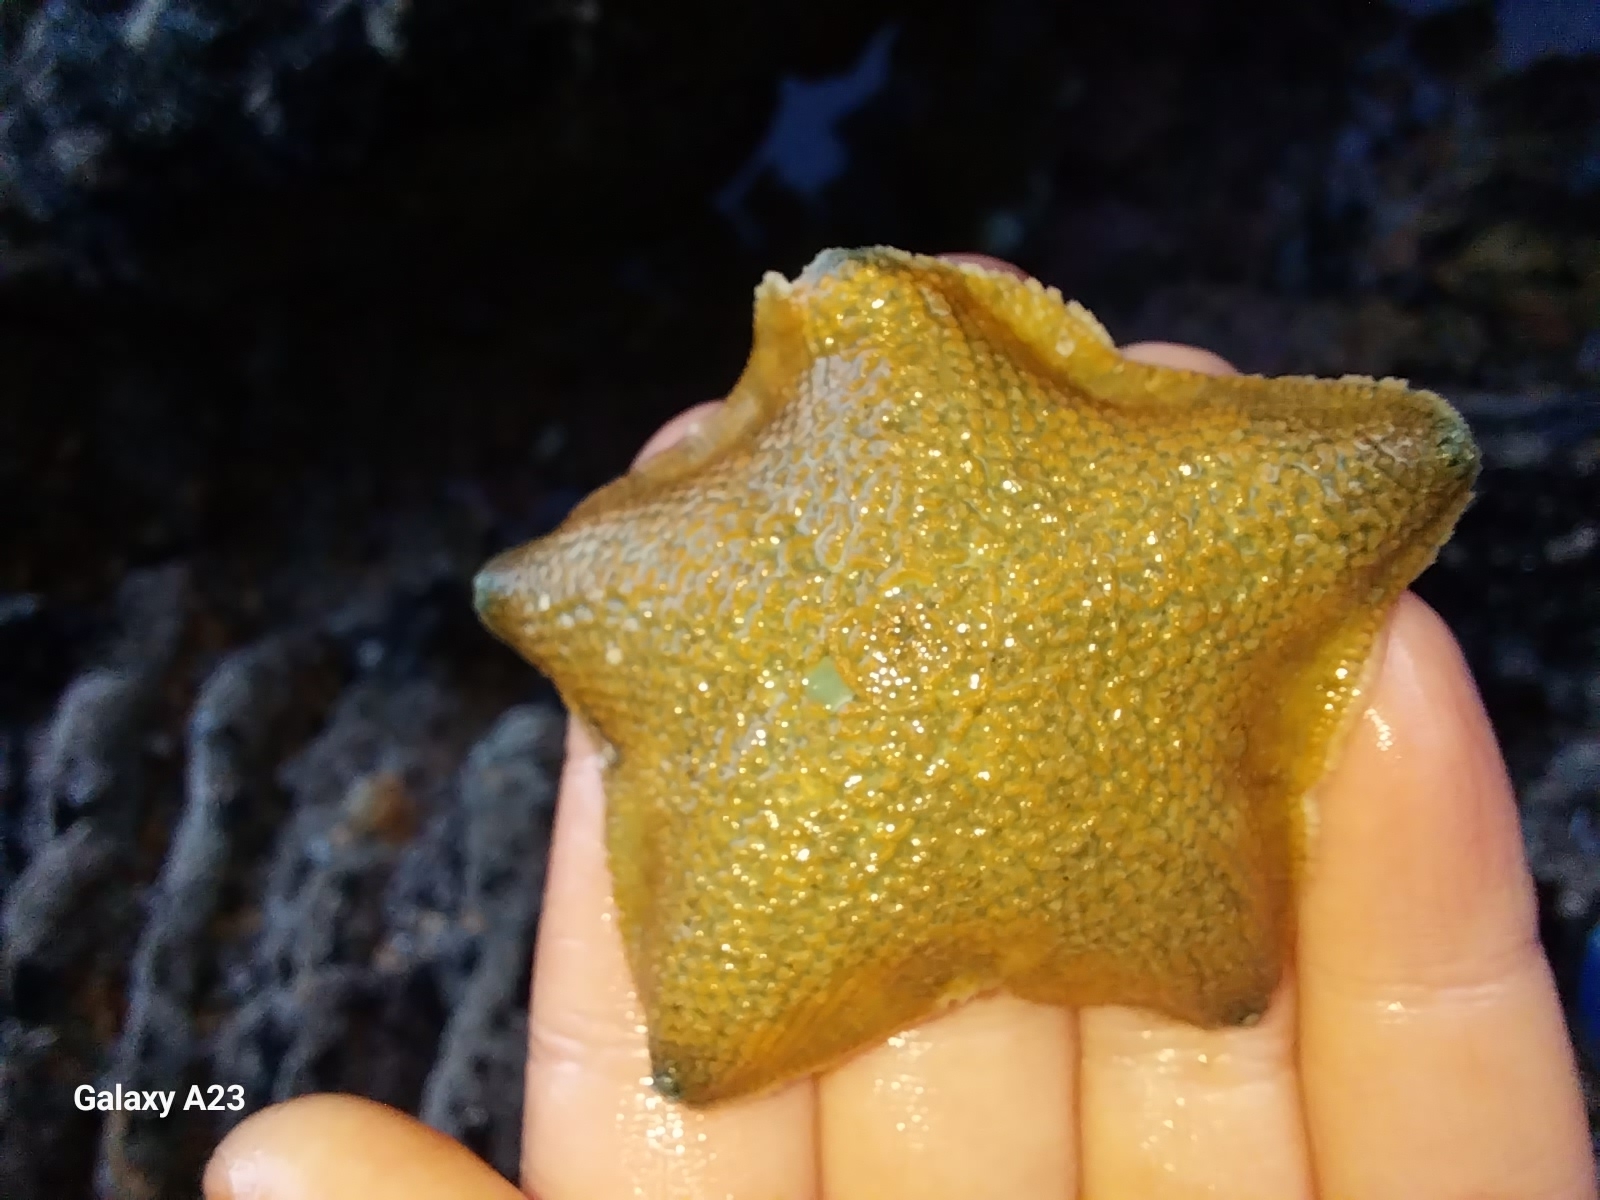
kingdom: Animalia
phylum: Echinodermata
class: Asteroidea
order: Valvatida
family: Asterinidae
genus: Patiriella
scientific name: Patiriella regularis
